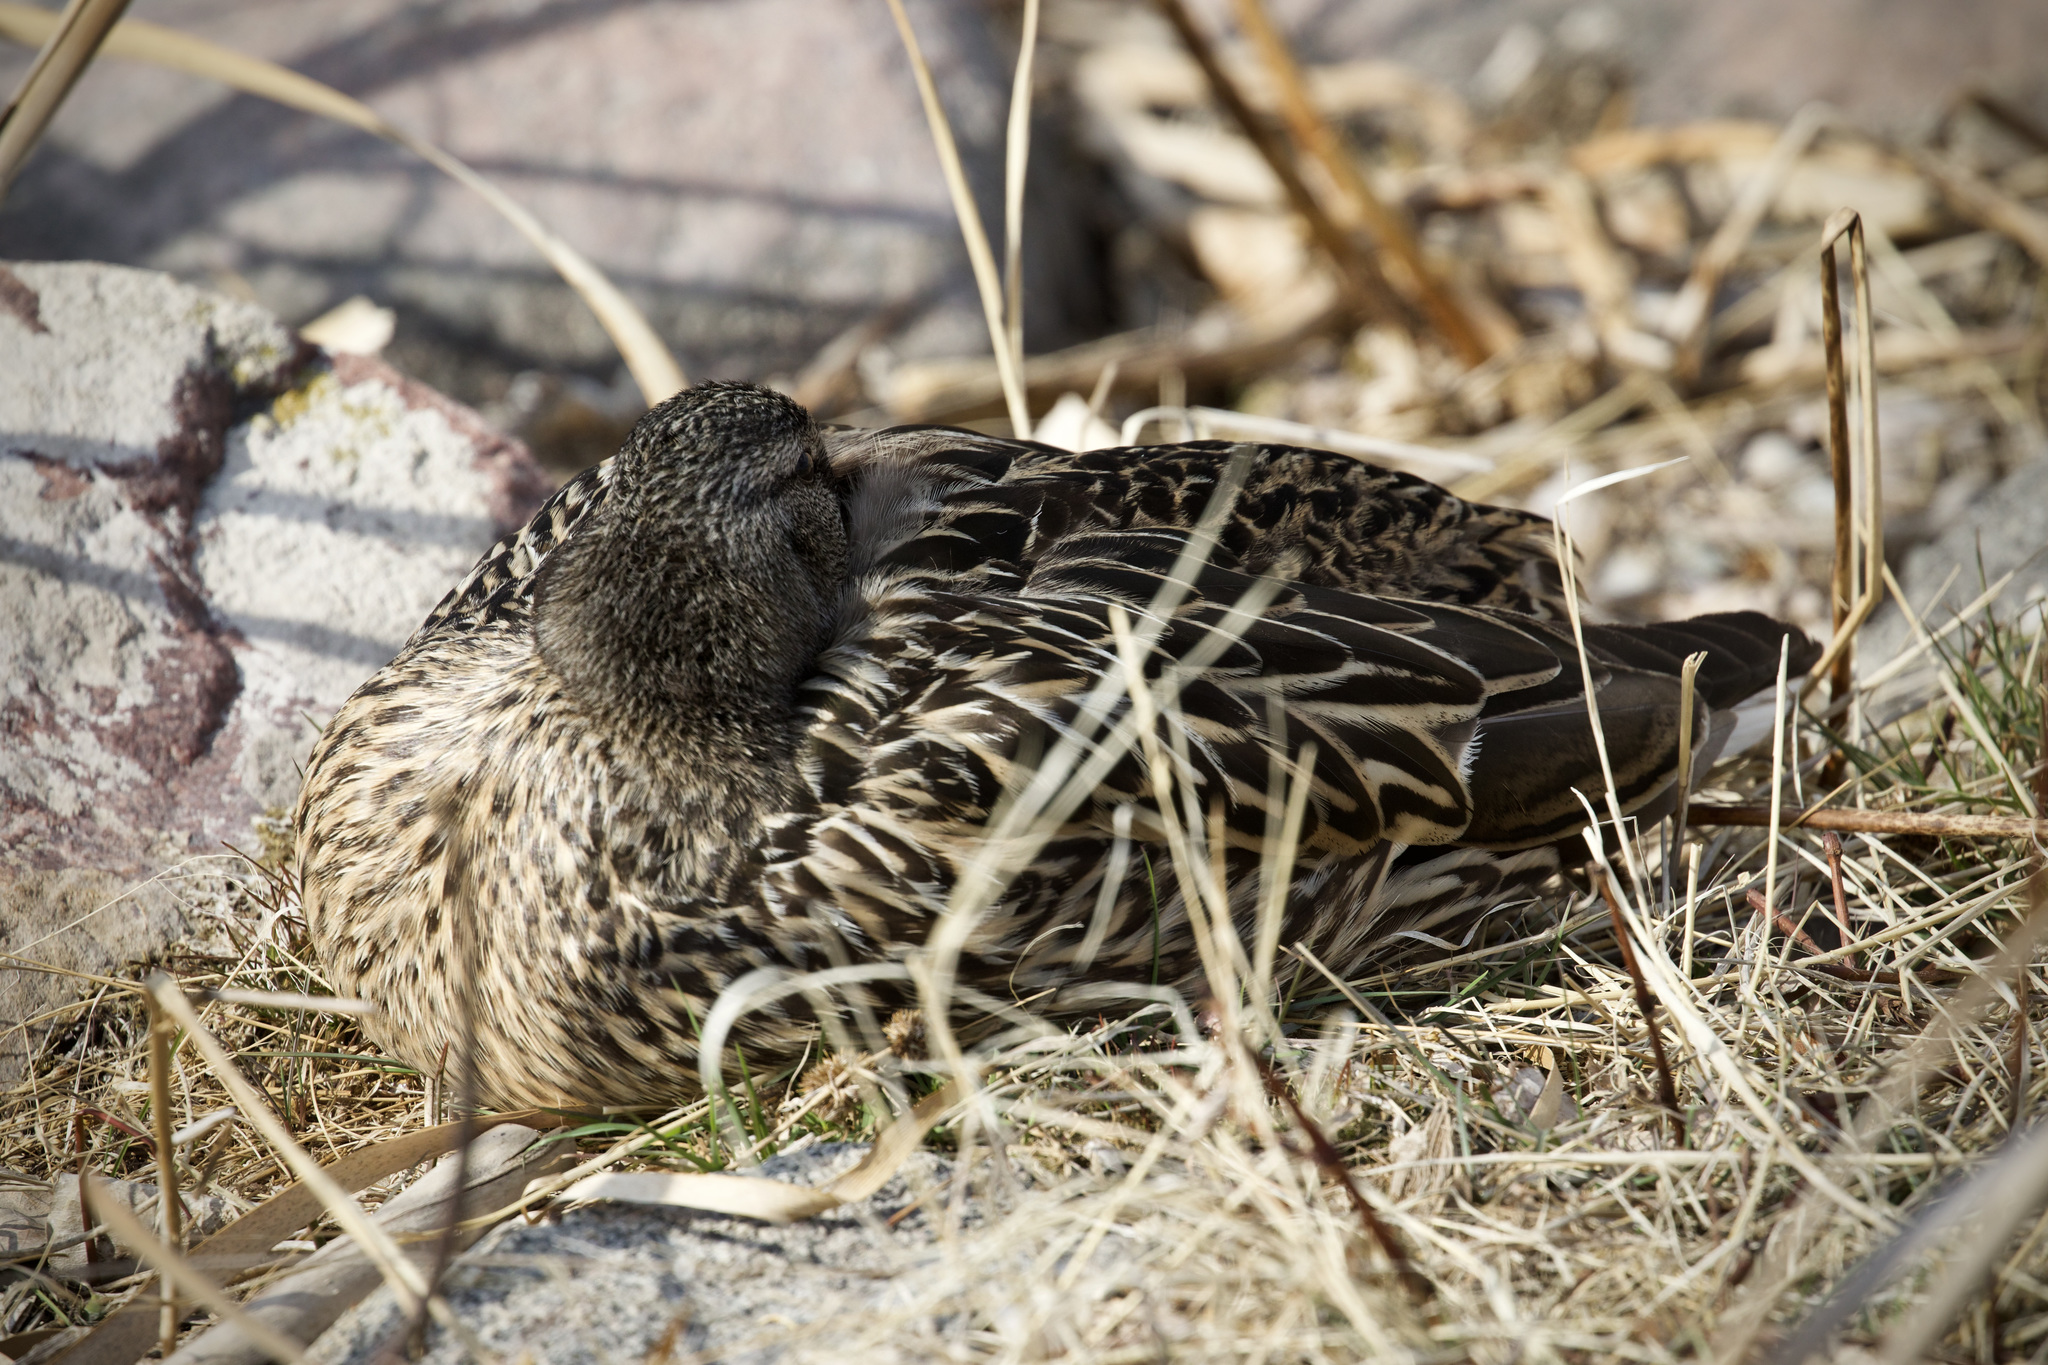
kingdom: Animalia
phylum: Chordata
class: Aves
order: Anseriformes
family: Anatidae
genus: Anas
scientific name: Anas platyrhynchos
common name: Mallard
